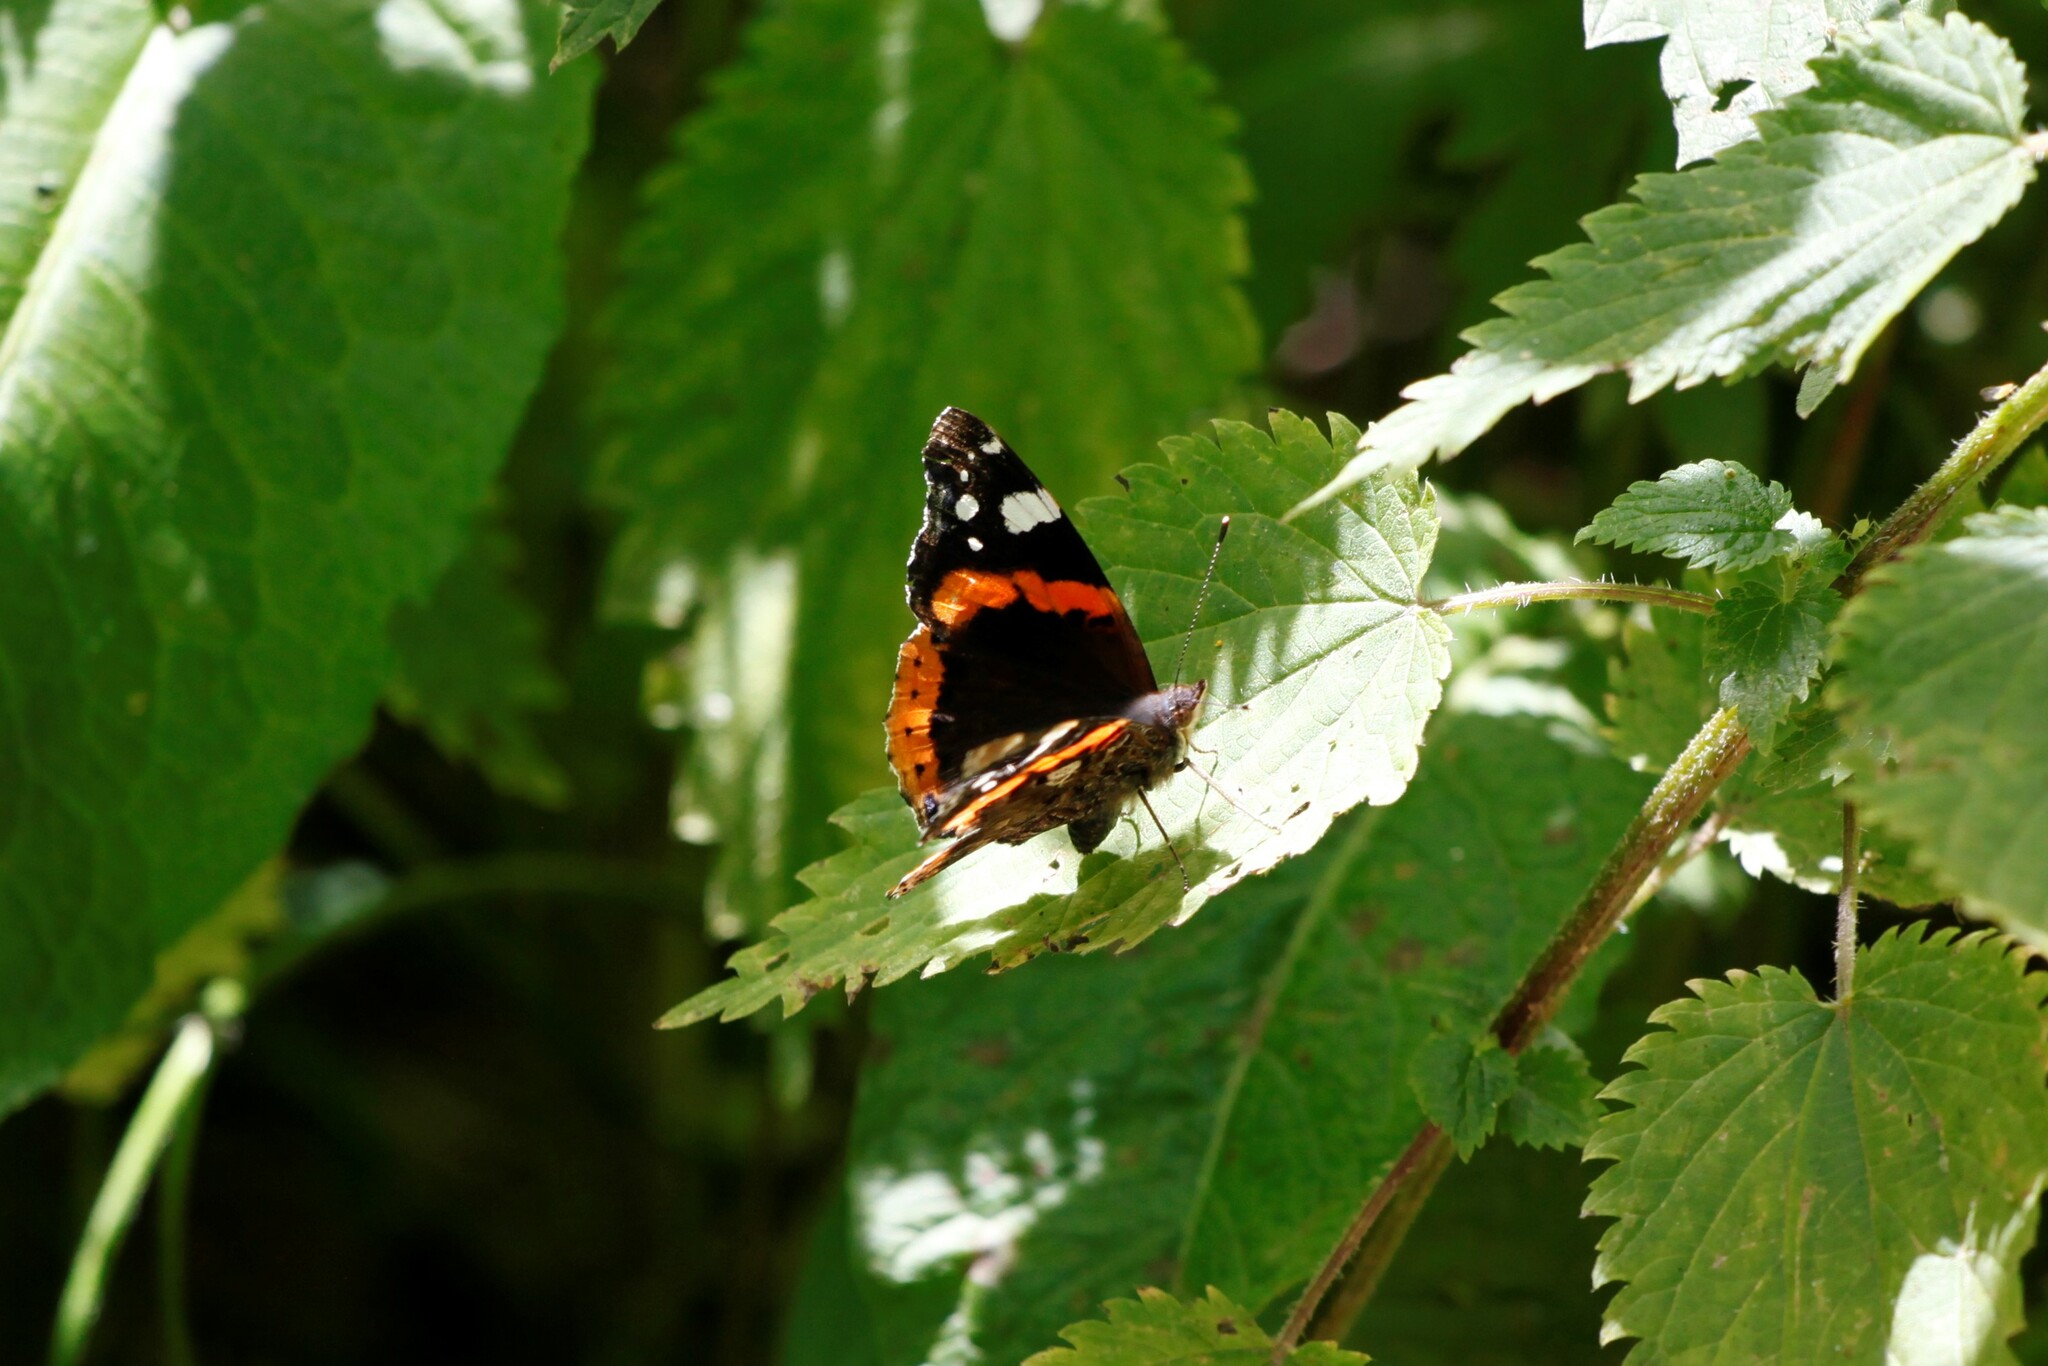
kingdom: Animalia
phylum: Arthropoda
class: Insecta
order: Lepidoptera
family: Nymphalidae
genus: Vanessa
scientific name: Vanessa atalanta
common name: Red admiral
